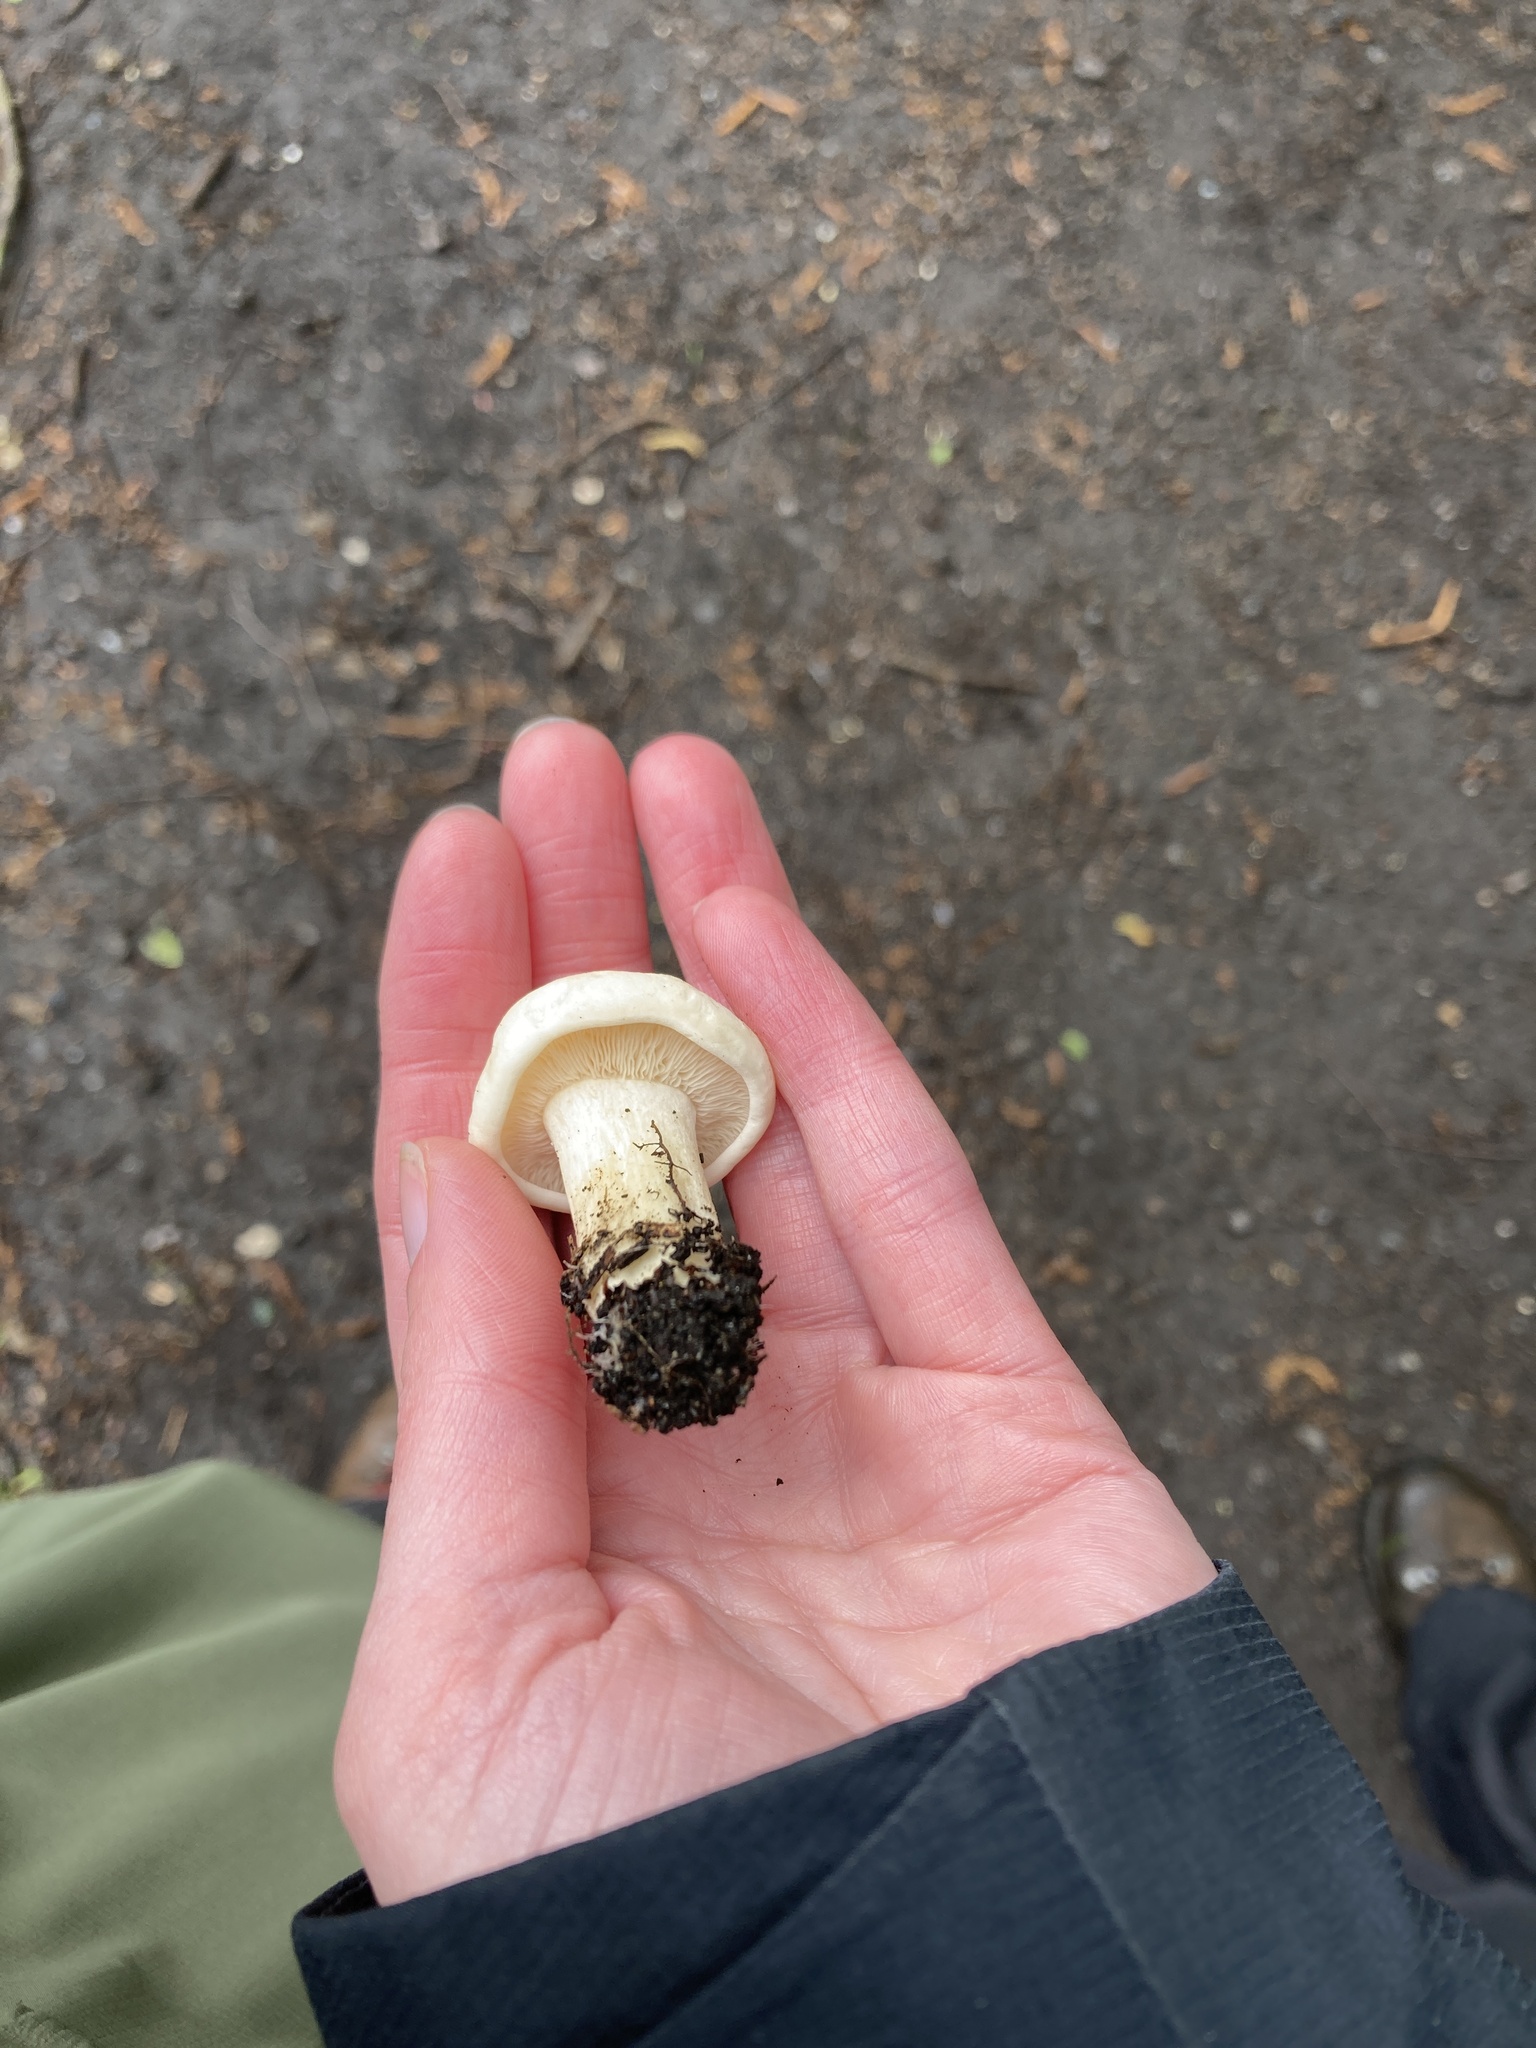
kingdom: Fungi
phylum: Basidiomycota
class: Agaricomycetes
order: Agaricales
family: Lyophyllaceae
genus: Calocybe
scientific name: Calocybe gambosa
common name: St. george's mushroom
